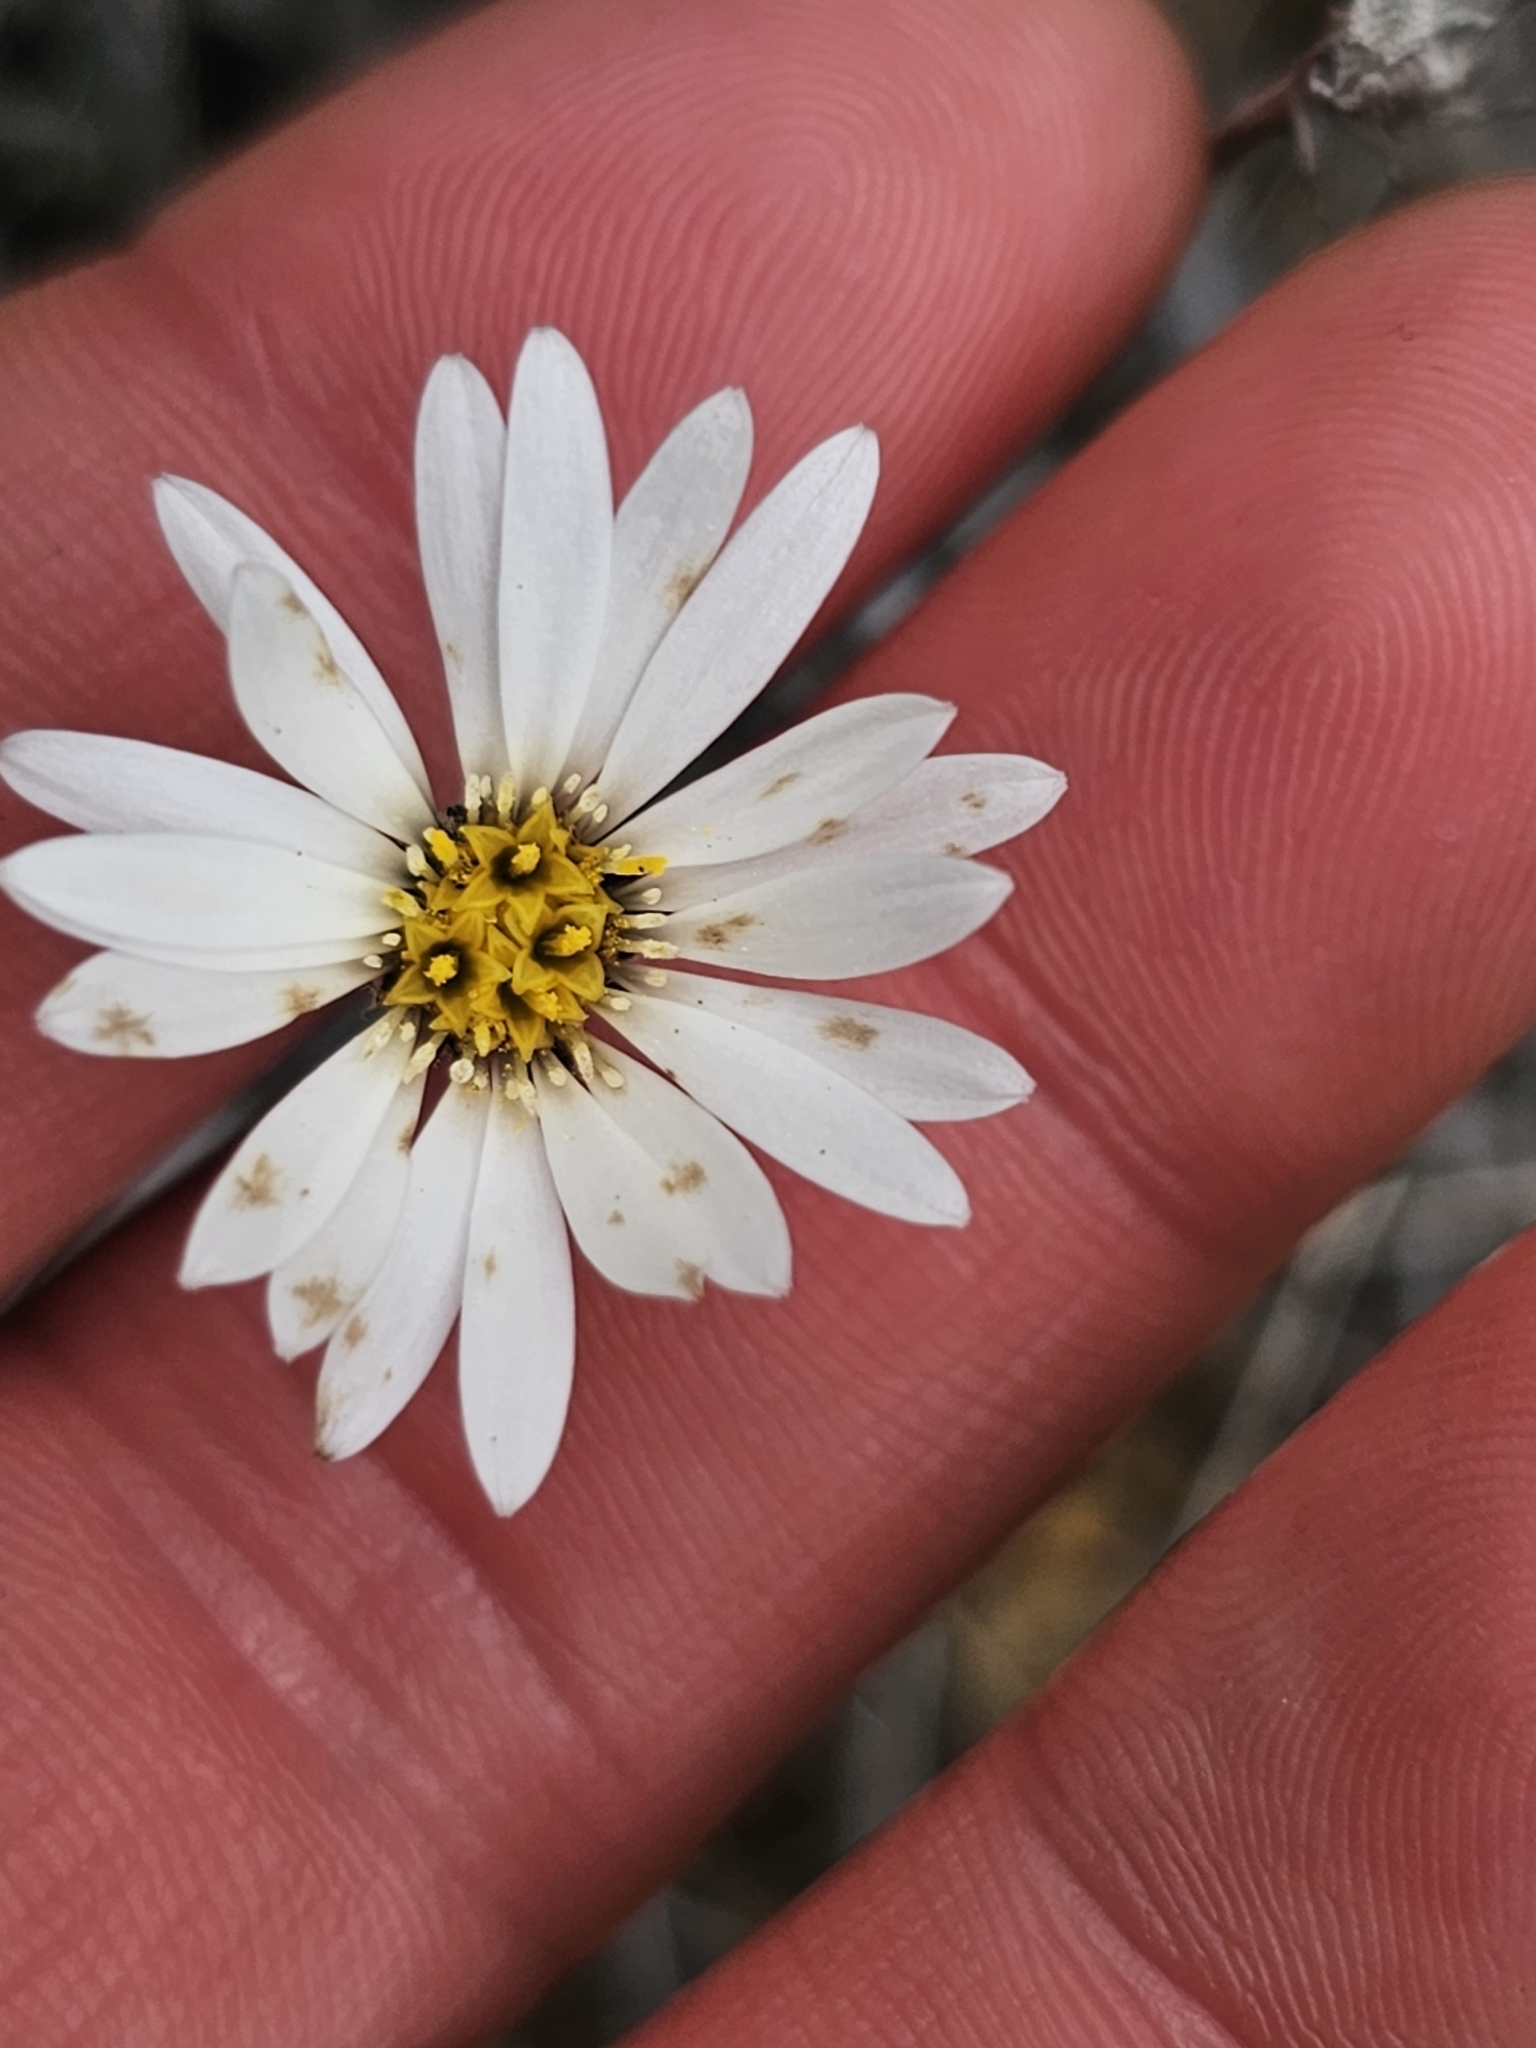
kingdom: Plantae
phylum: Tracheophyta
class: Magnoliopsida
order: Asterales
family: Asteraceae
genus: Celmisia
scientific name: Celmisia gracilenta
